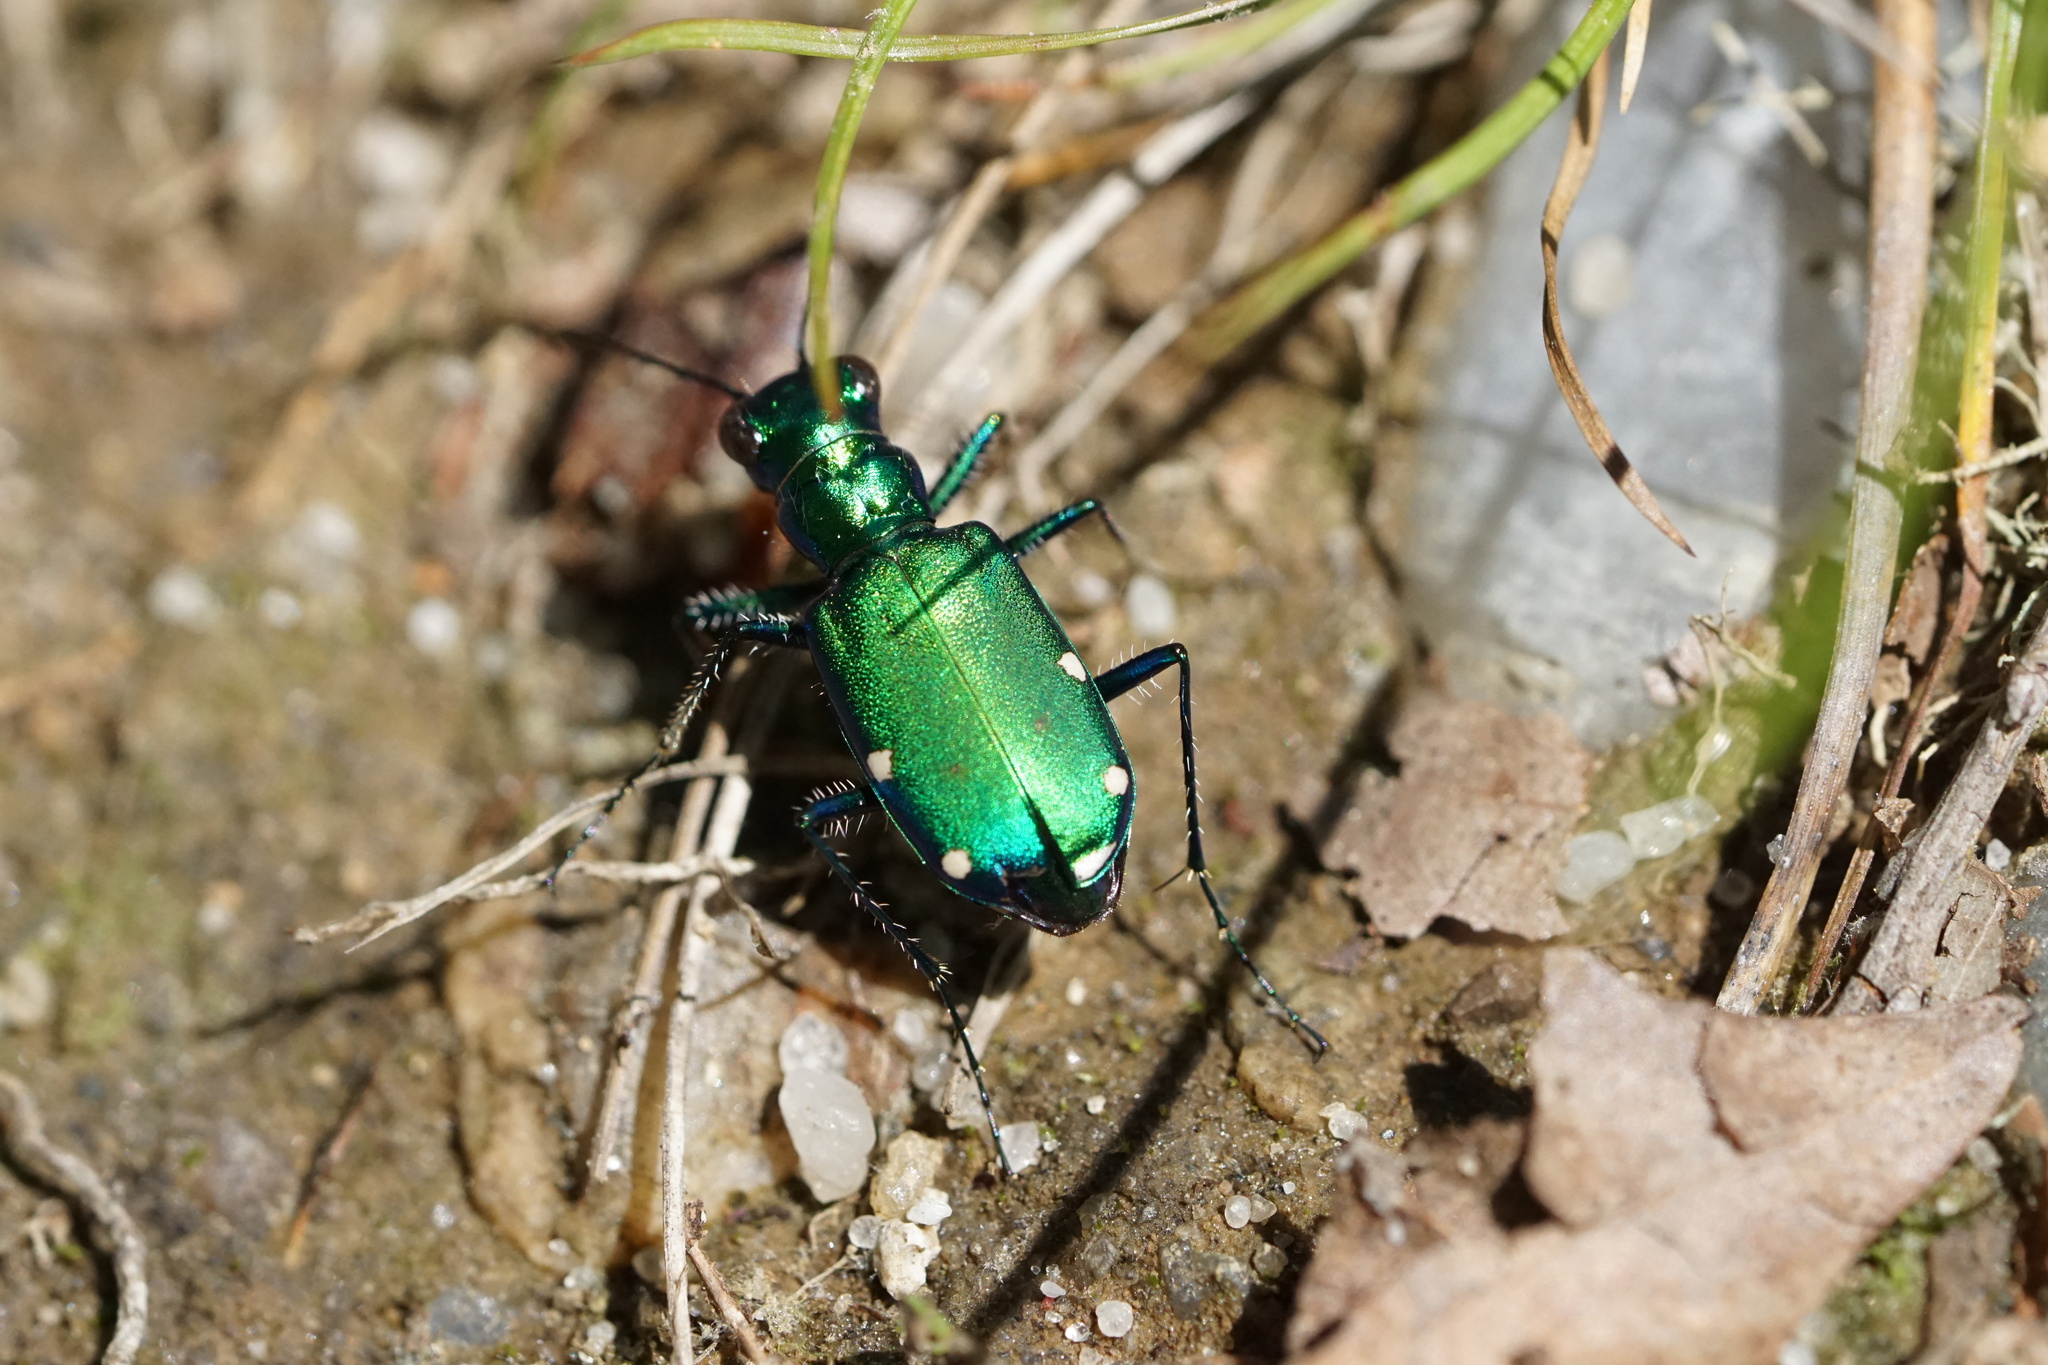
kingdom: Animalia
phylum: Arthropoda
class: Insecta
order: Coleoptera
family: Carabidae
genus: Cicindela
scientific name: Cicindela sexguttata
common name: Six-spotted tiger beetle
